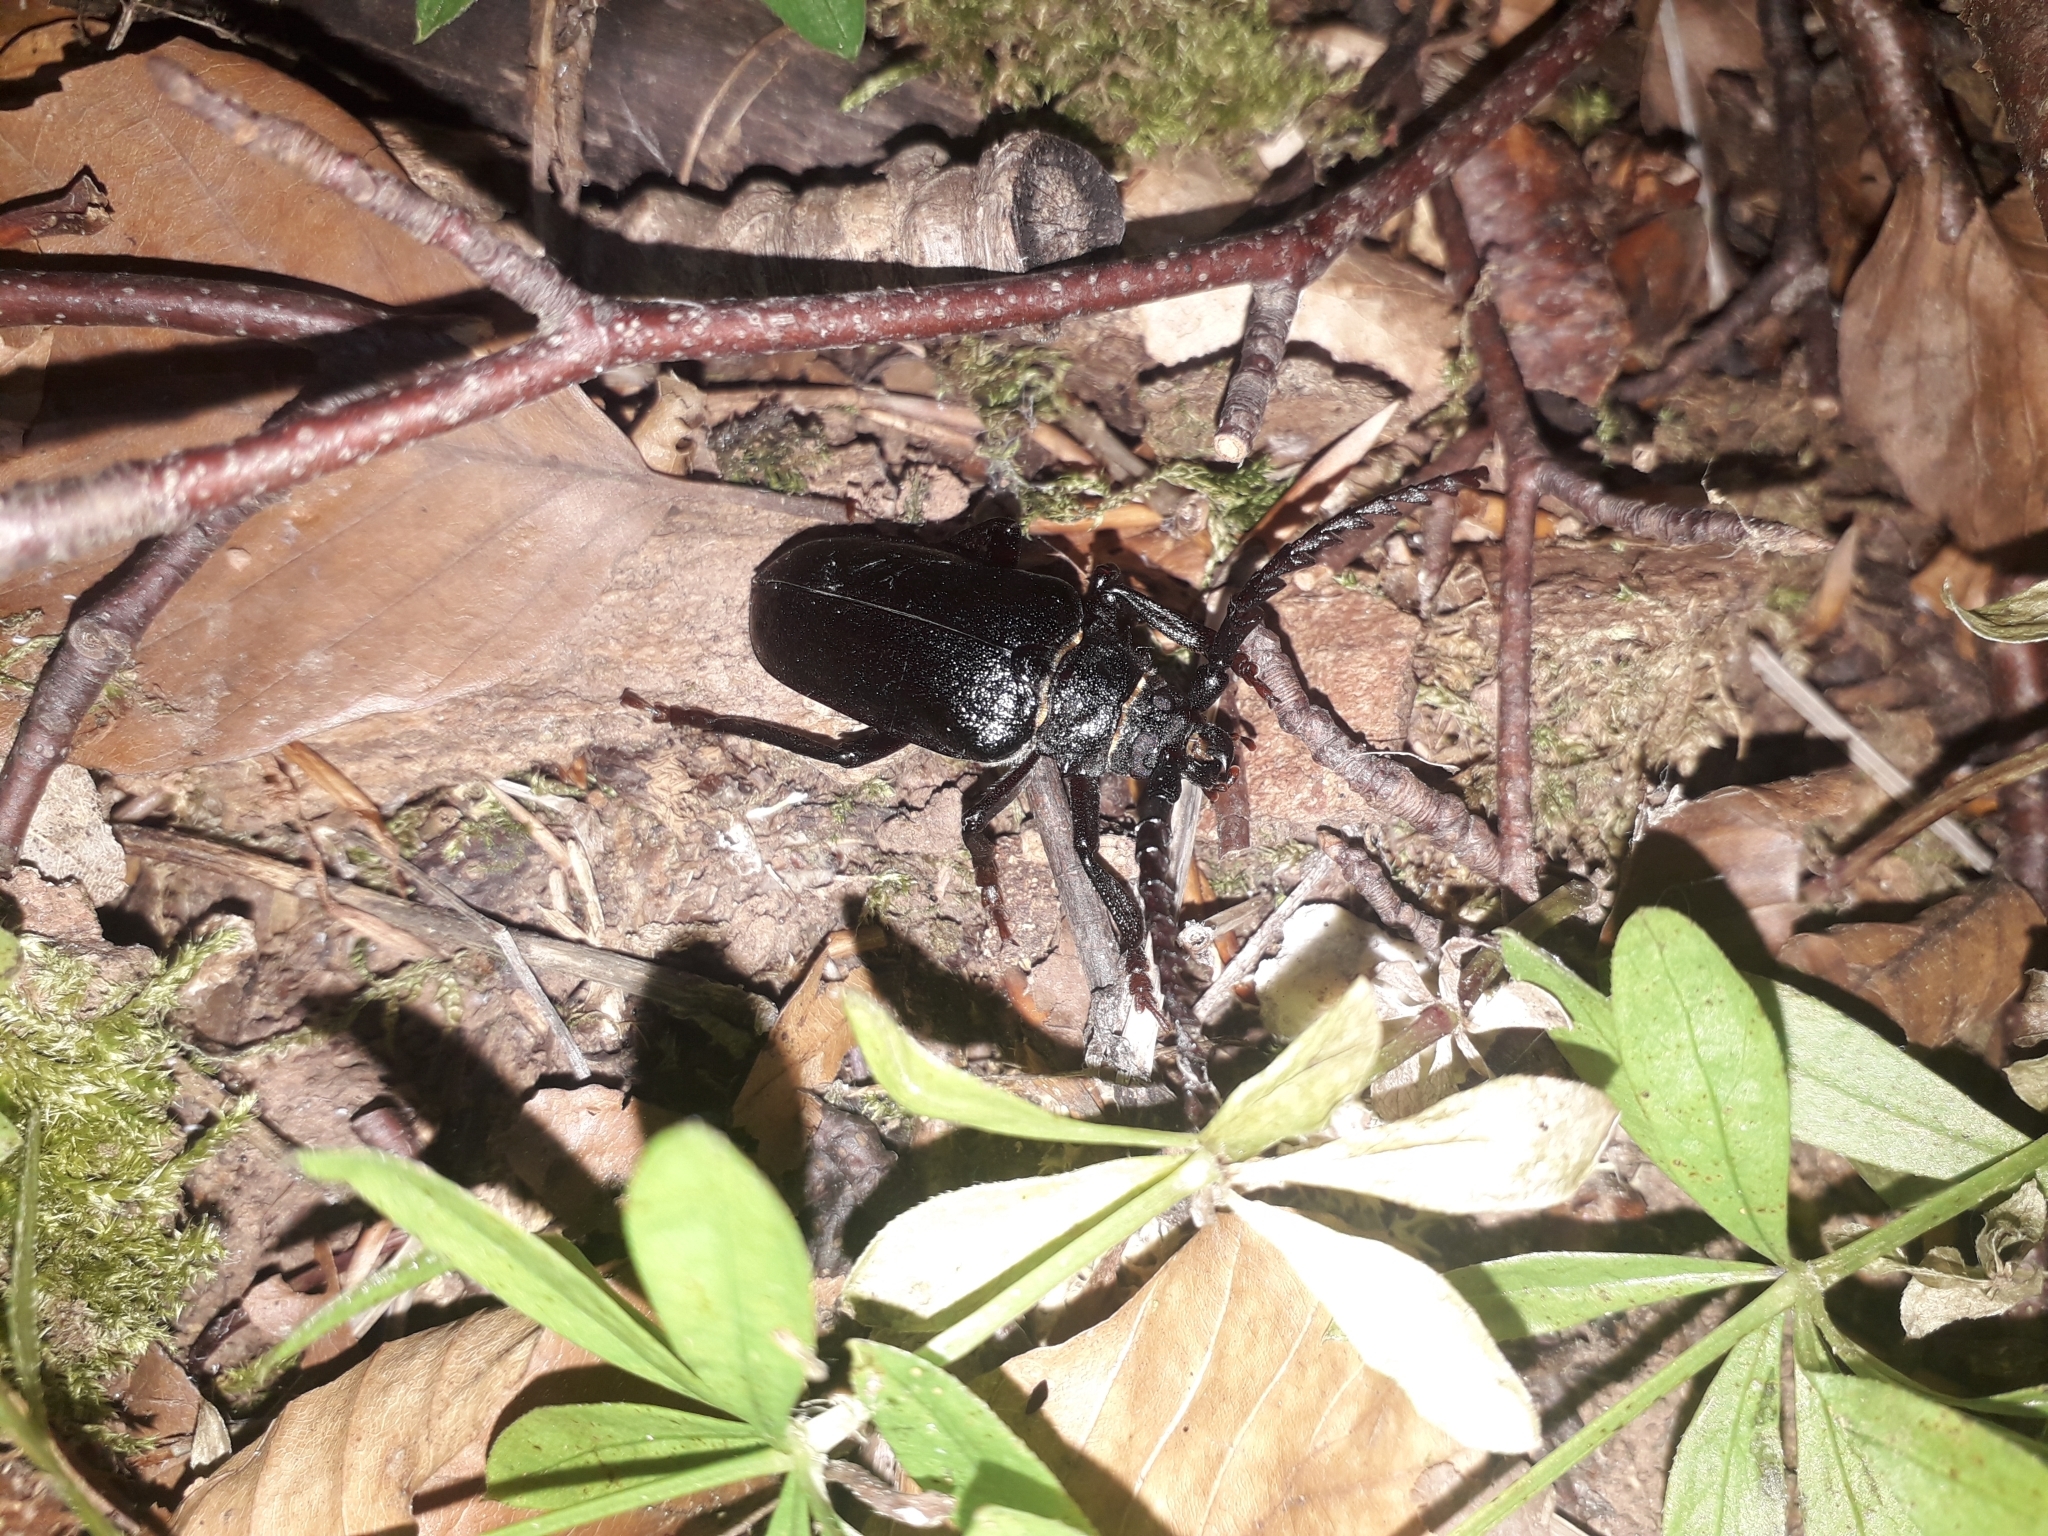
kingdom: Animalia
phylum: Arthropoda
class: Insecta
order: Coleoptera
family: Cerambycidae
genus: Prionus
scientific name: Prionus coriarius
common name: Tanner beetle
